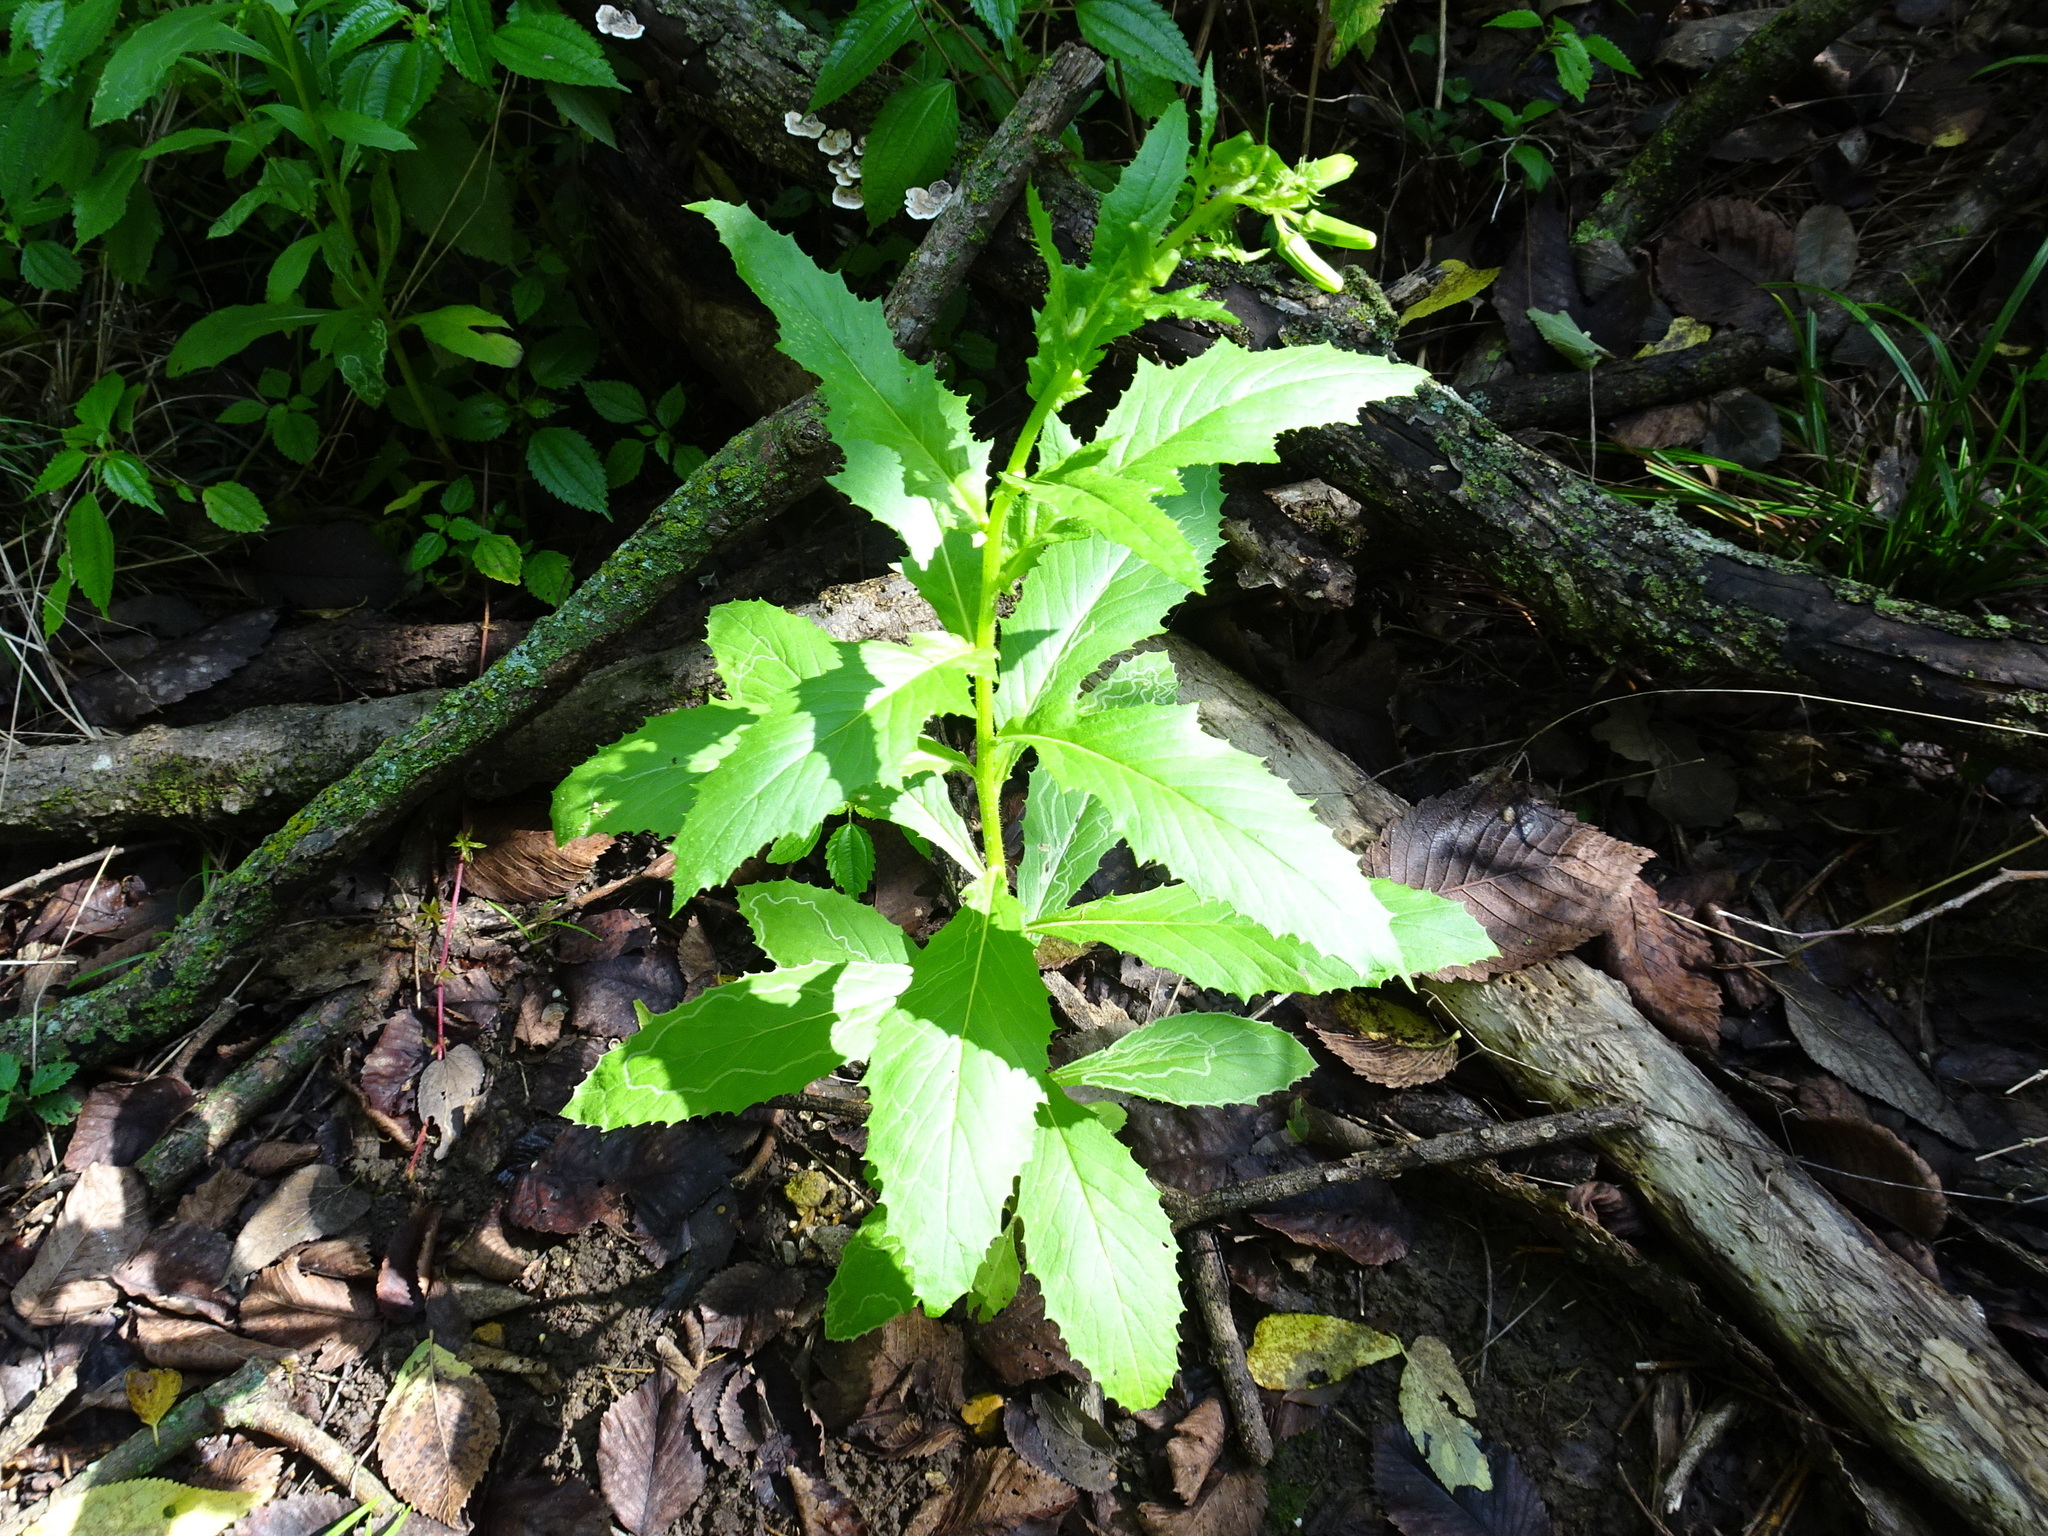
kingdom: Plantae
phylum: Tracheophyta
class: Magnoliopsida
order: Asterales
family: Asteraceae
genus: Erechtites
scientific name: Erechtites hieraciifolius
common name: American burnweed
